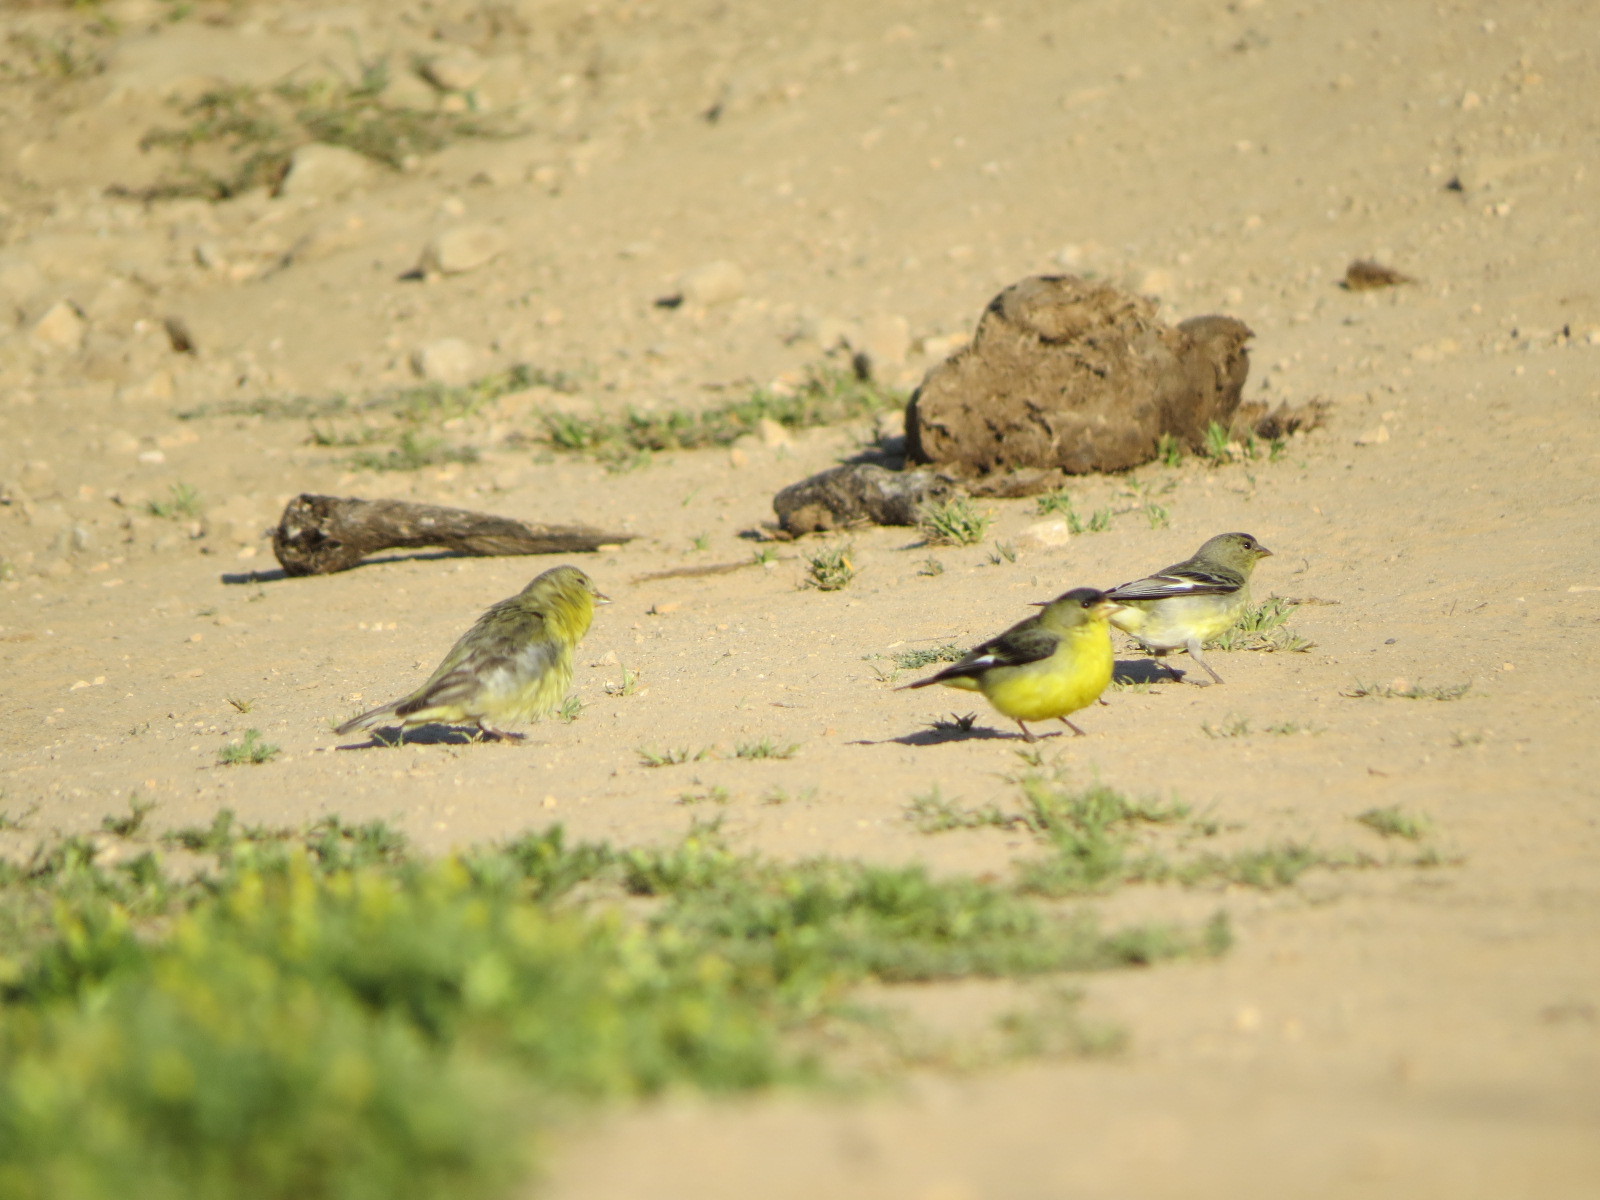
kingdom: Animalia
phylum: Chordata
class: Aves
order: Passeriformes
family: Fringillidae
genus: Spinus
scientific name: Spinus psaltria
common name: Lesser goldfinch
